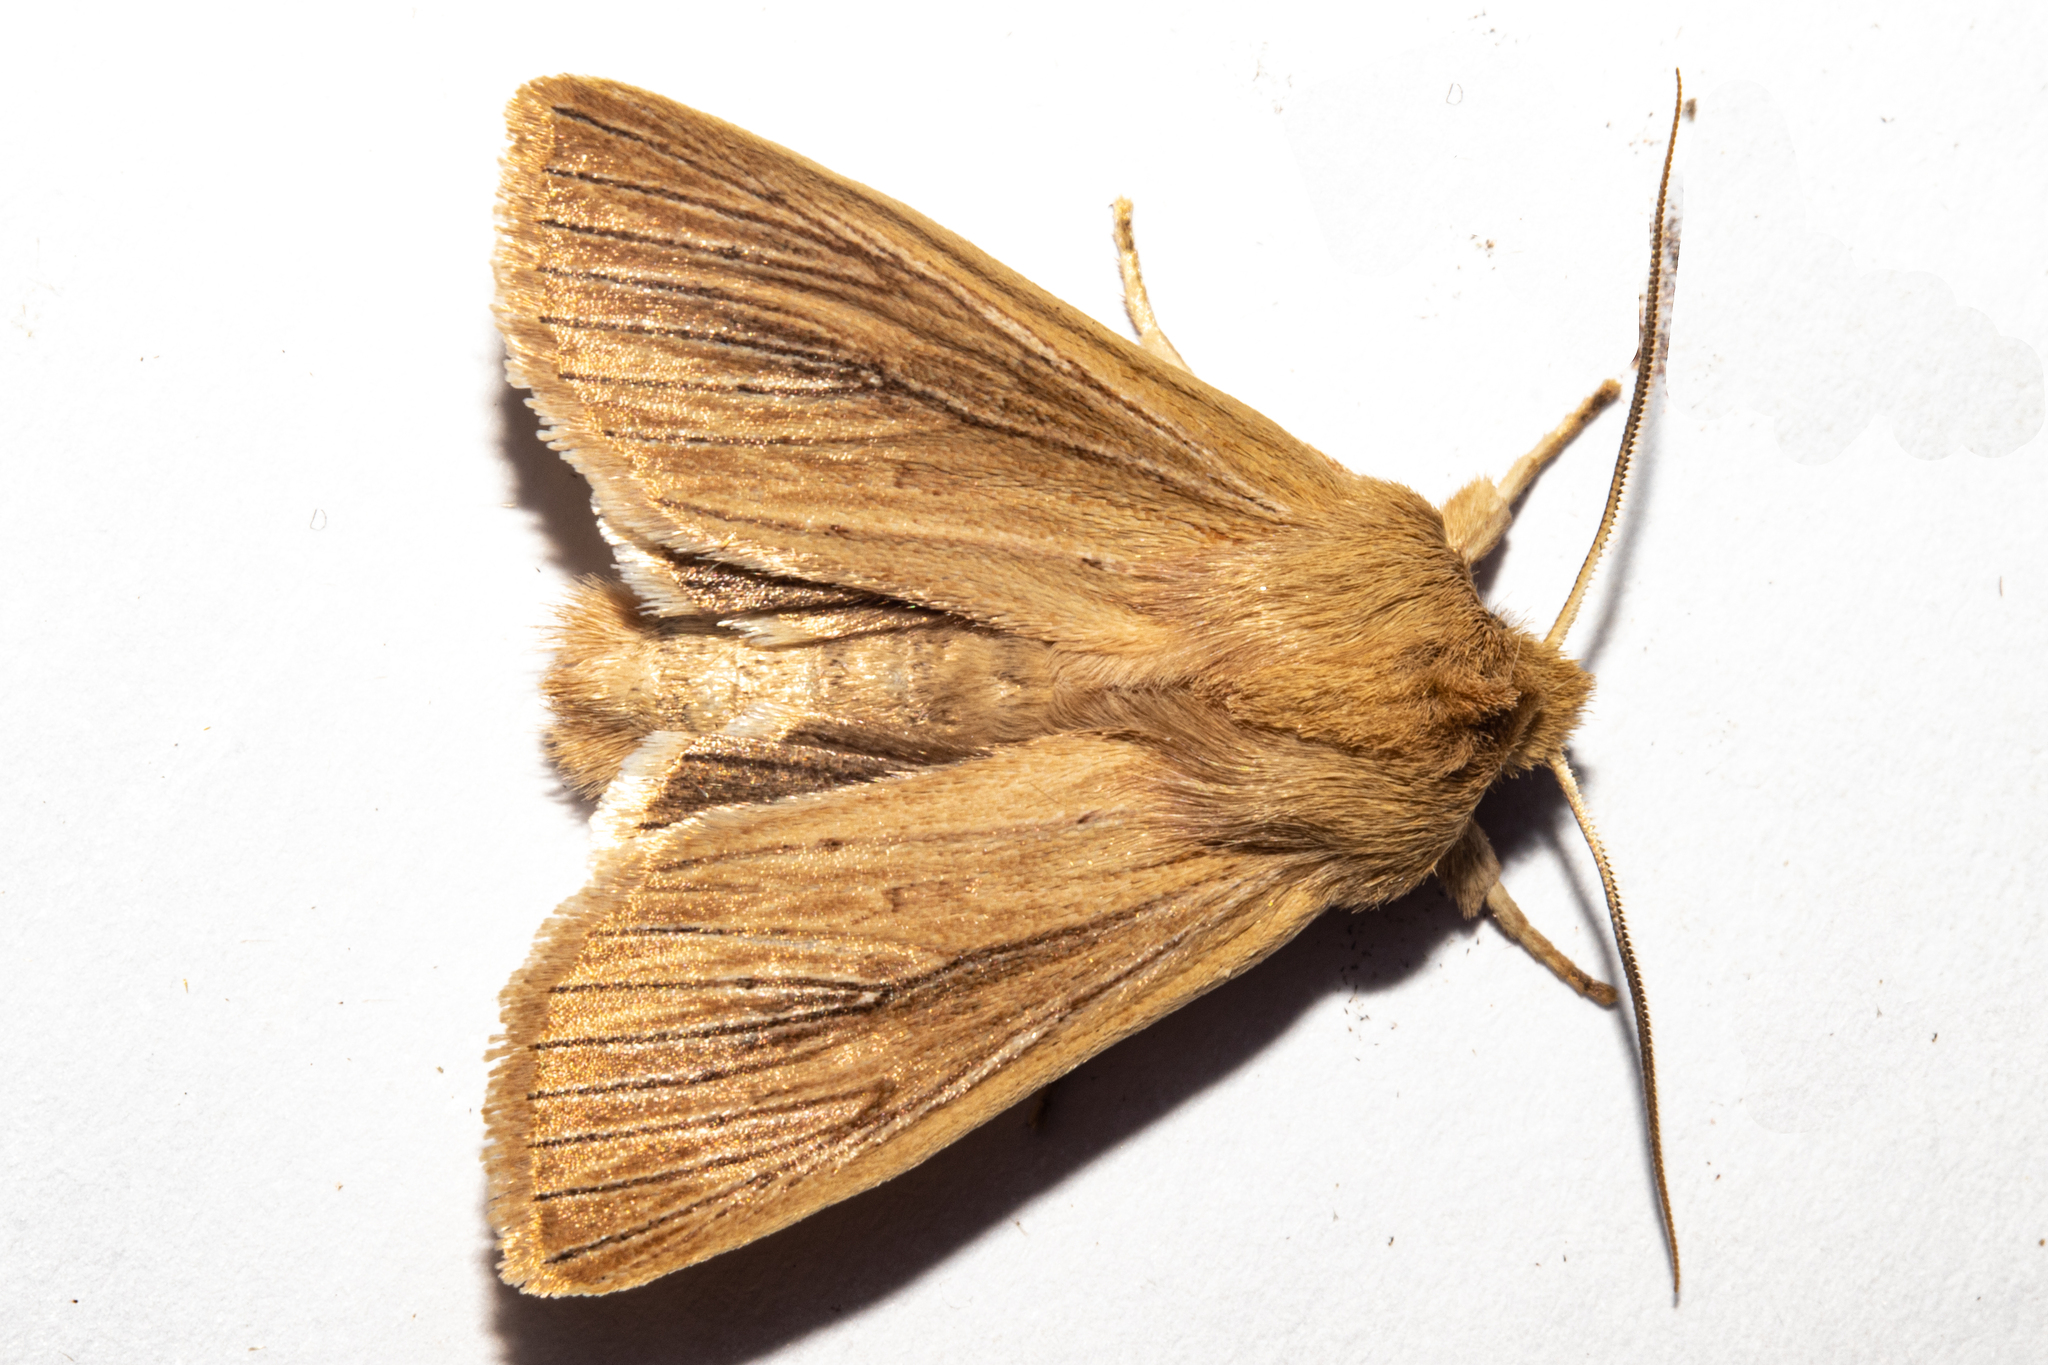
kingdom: Animalia
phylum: Arthropoda
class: Insecta
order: Lepidoptera
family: Noctuidae
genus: Ichneutica
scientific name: Ichneutica arotis
